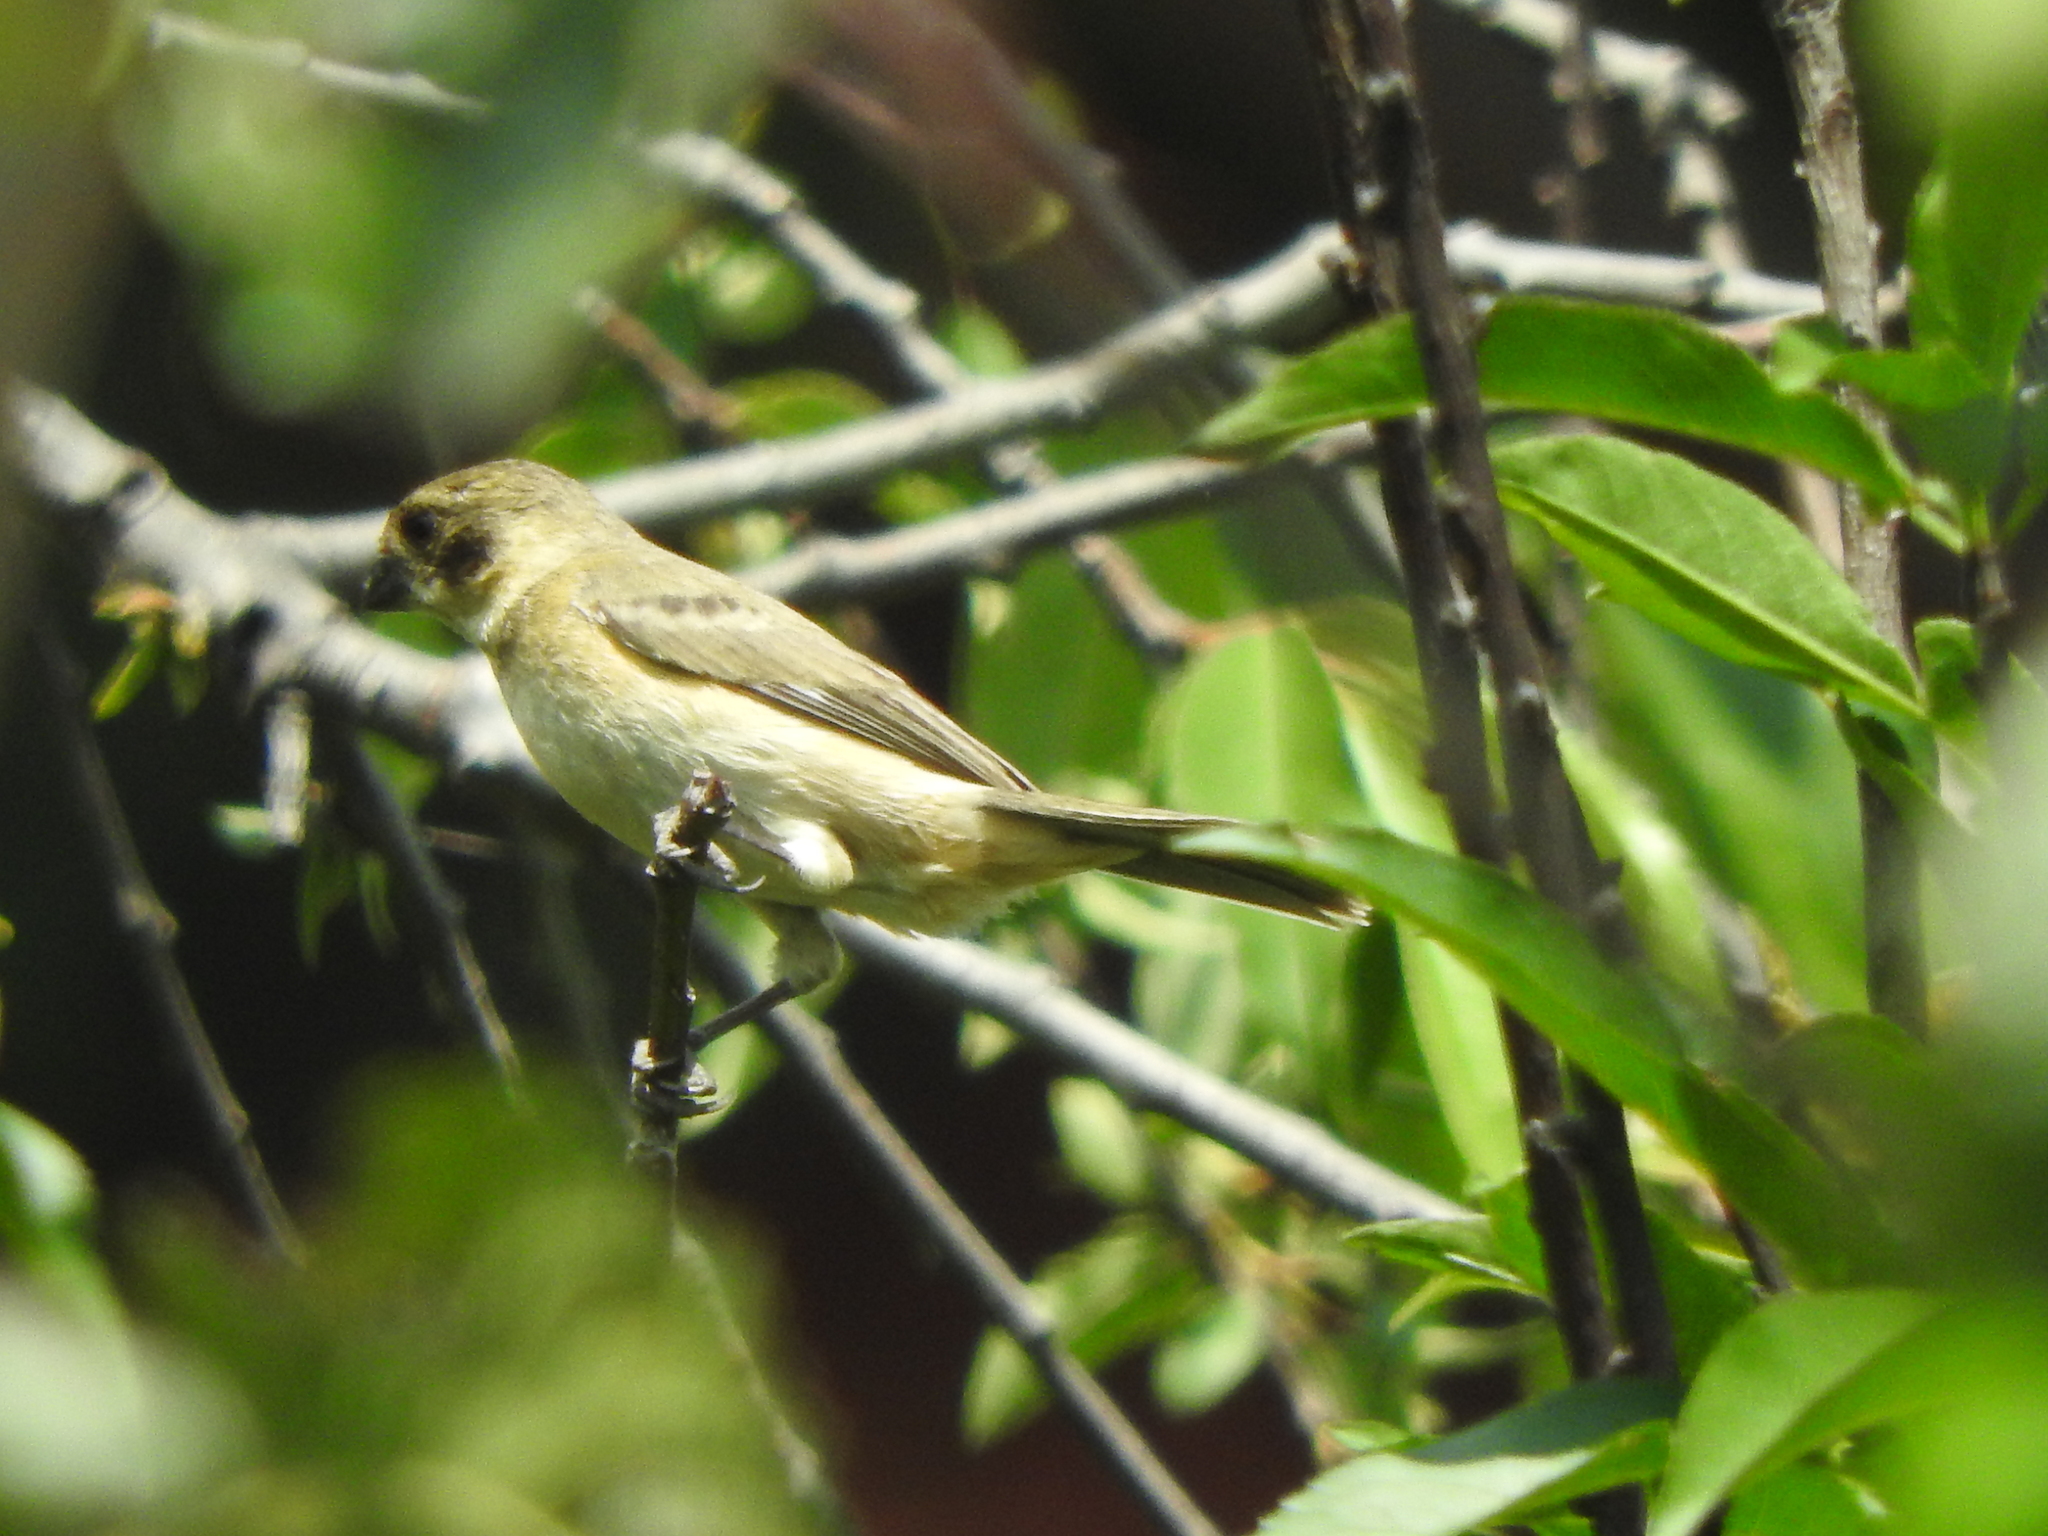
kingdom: Animalia
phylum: Chordata
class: Aves
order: Passeriformes
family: Thraupidae
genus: Sporophila
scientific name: Sporophila torqueola
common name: White-collared seedeater
